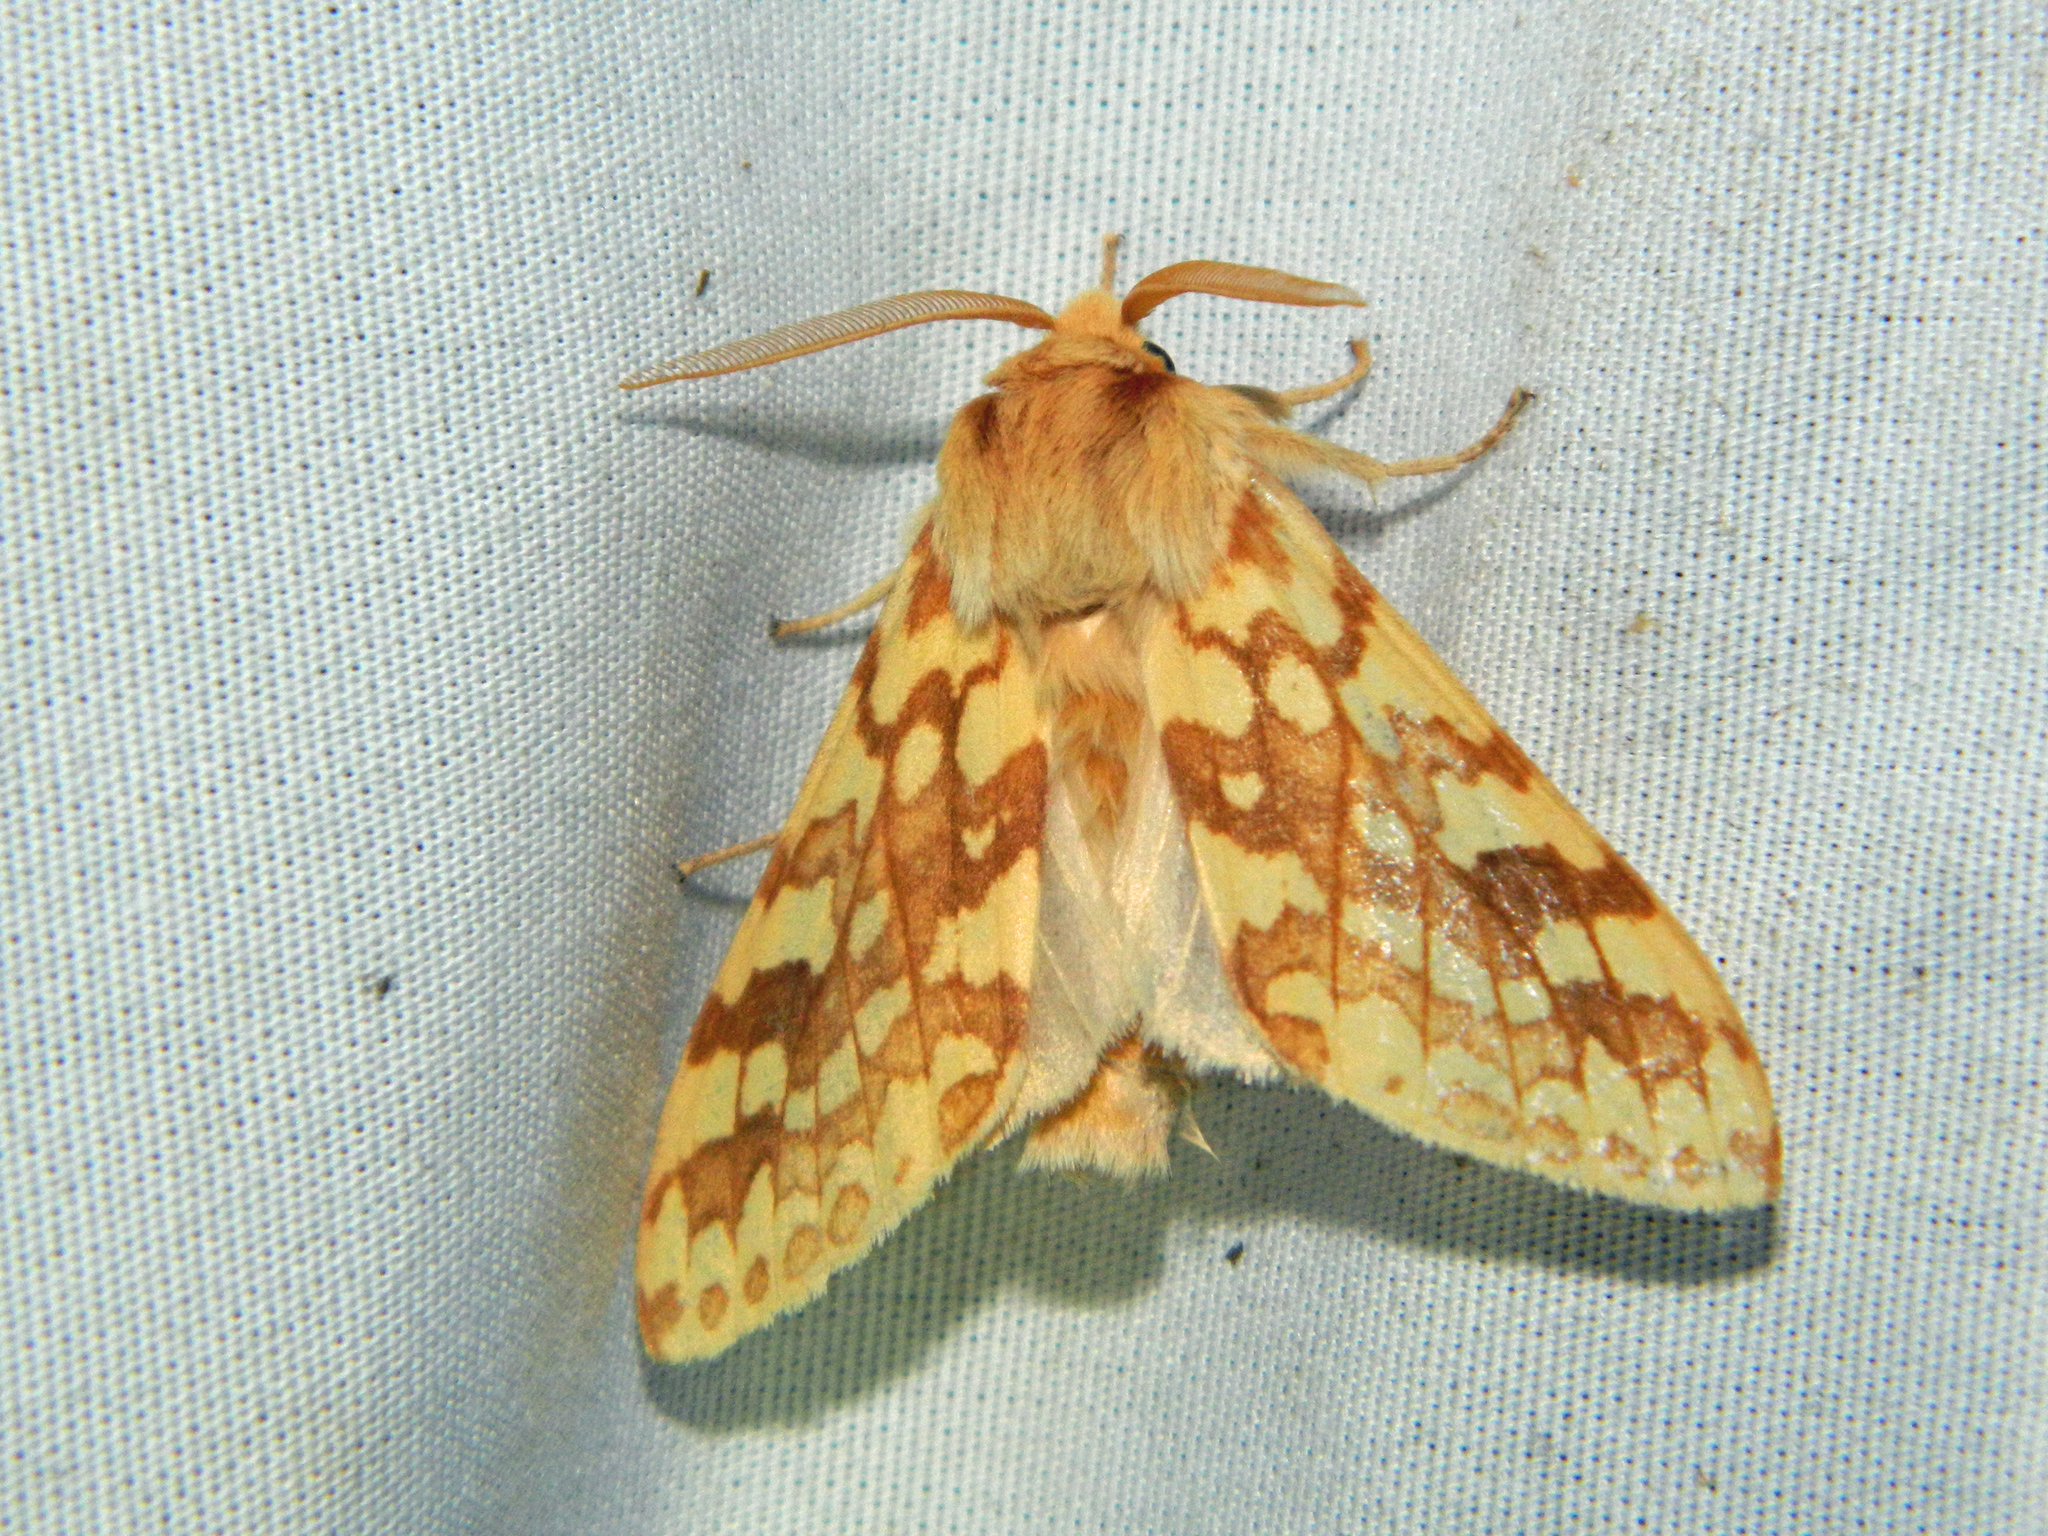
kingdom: Animalia
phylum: Arthropoda
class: Insecta
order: Lepidoptera
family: Erebidae
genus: Lophocampa
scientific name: Lophocampa maculata
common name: Spotted tussock moth
